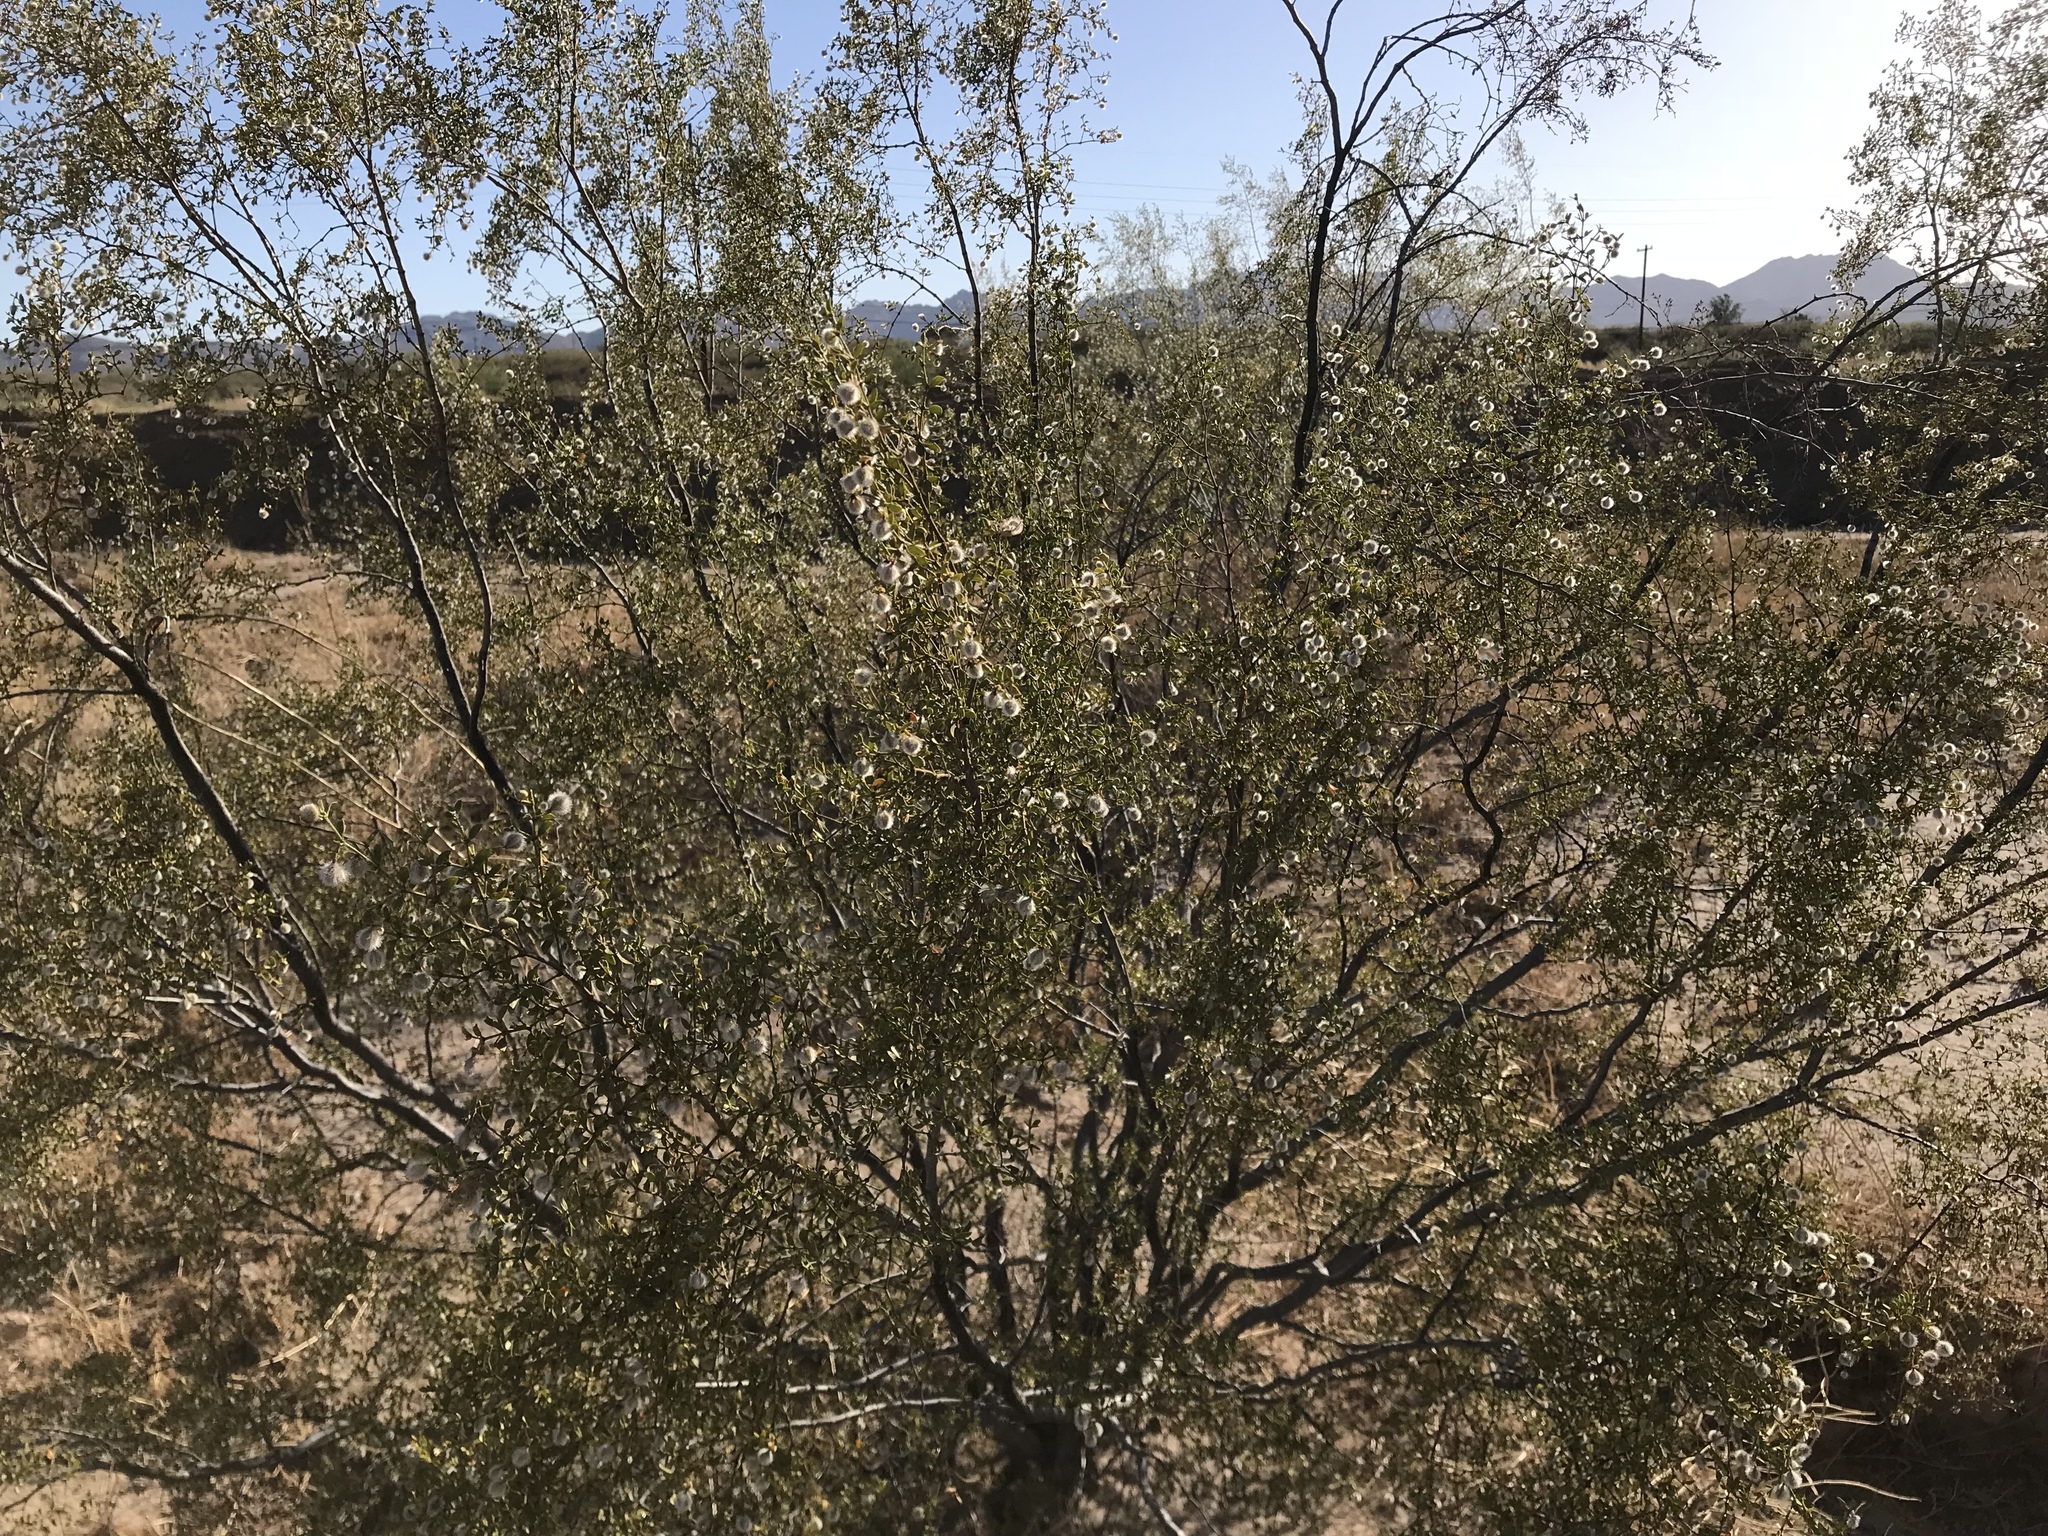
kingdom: Plantae
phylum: Tracheophyta
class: Magnoliopsida
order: Zygophyllales
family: Zygophyllaceae
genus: Larrea
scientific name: Larrea tridentata
